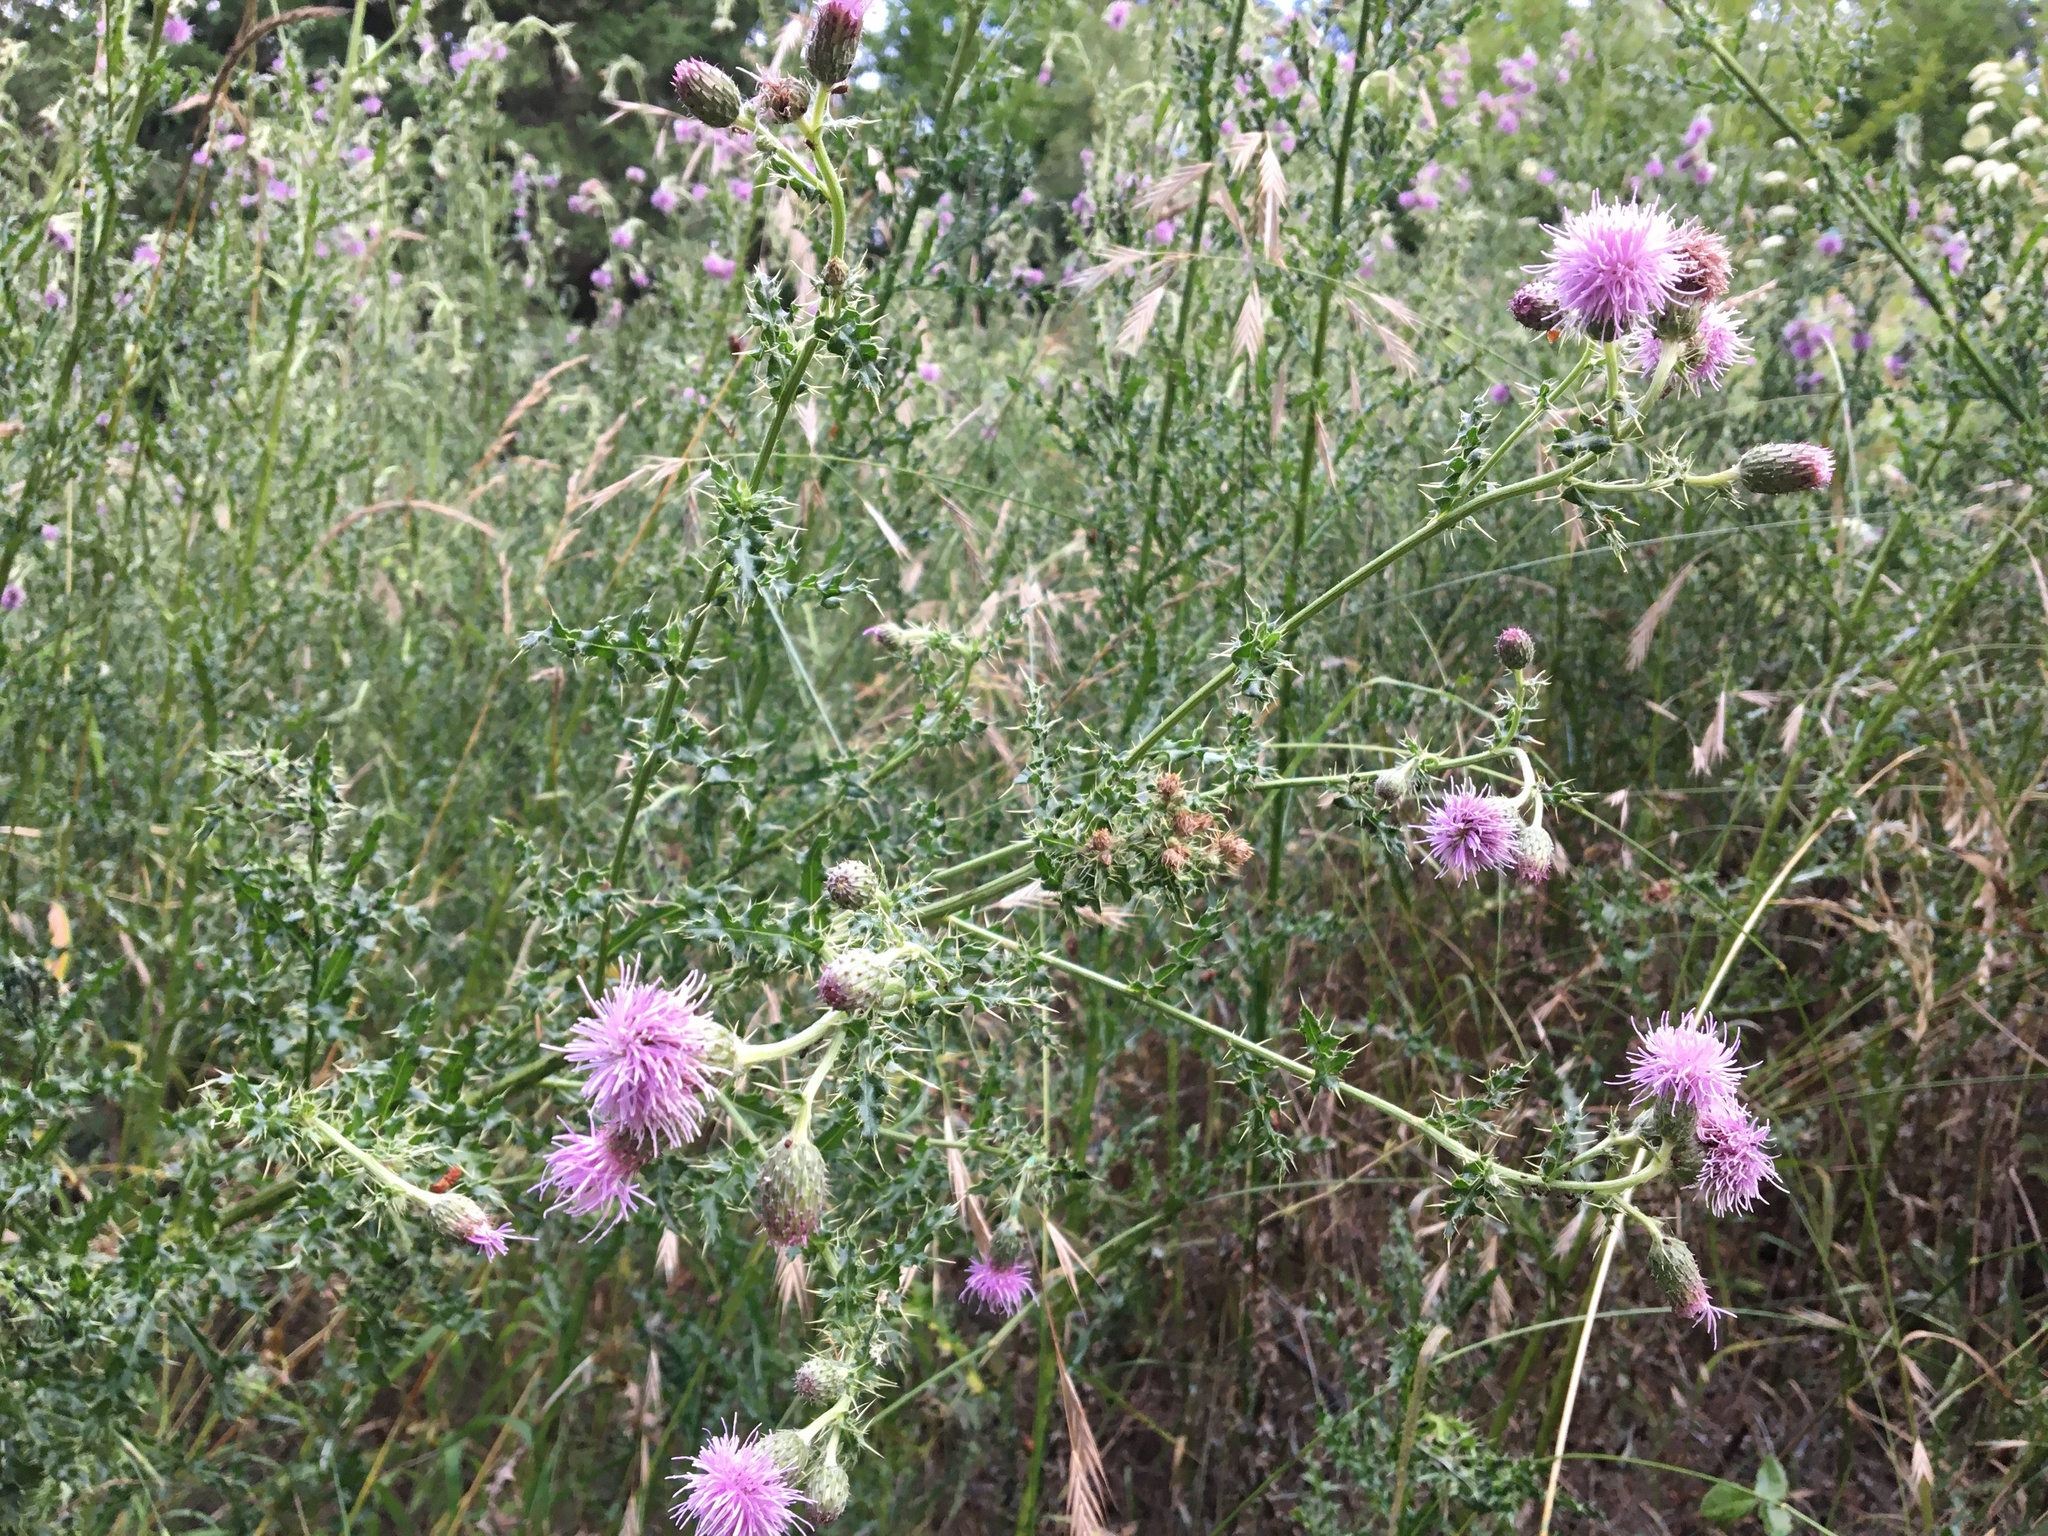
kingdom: Plantae
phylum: Tracheophyta
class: Magnoliopsida
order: Asterales
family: Asteraceae
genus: Cirsium
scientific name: Cirsium arvense
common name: Creeping thistle
